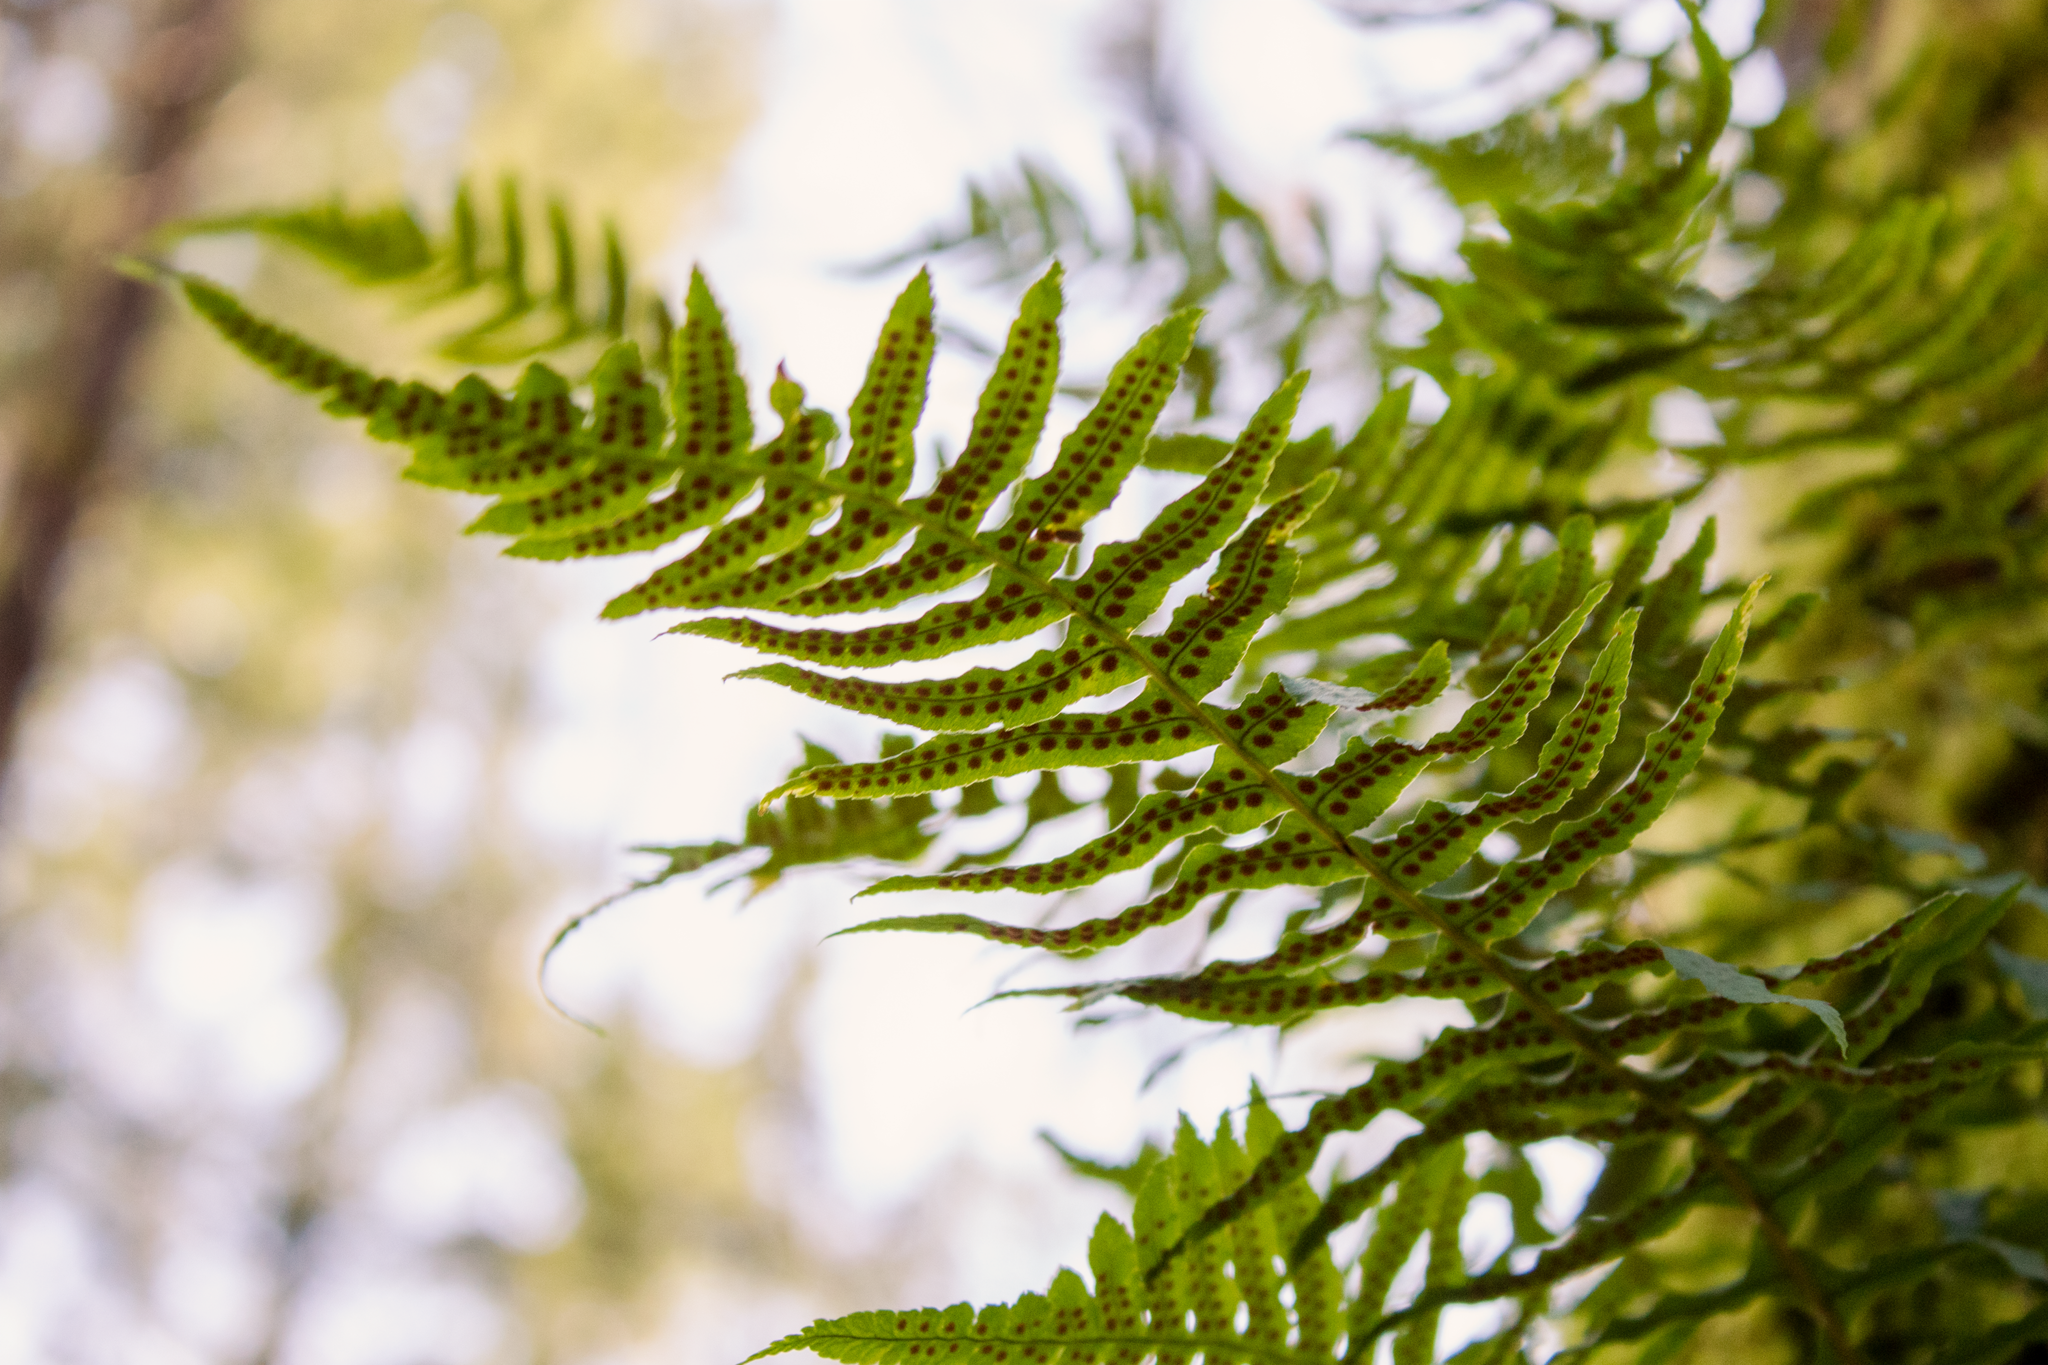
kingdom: Plantae
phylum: Tracheophyta
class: Polypodiopsida
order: Polypodiales
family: Polypodiaceae
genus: Polypodium
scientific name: Polypodium glycyrrhiza
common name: Licorice fern
